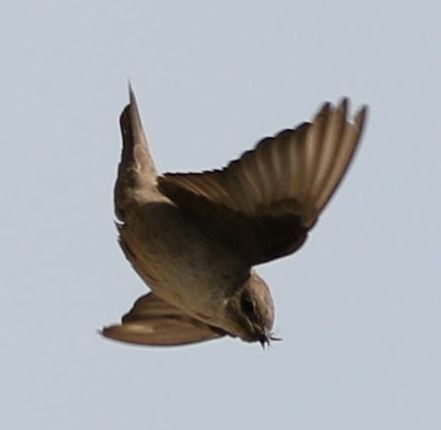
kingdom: Animalia
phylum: Chordata
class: Aves
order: Passeriformes
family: Hirundinidae
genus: Ptyonoprogne
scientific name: Ptyonoprogne rupestris
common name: Eurasian crag martin
